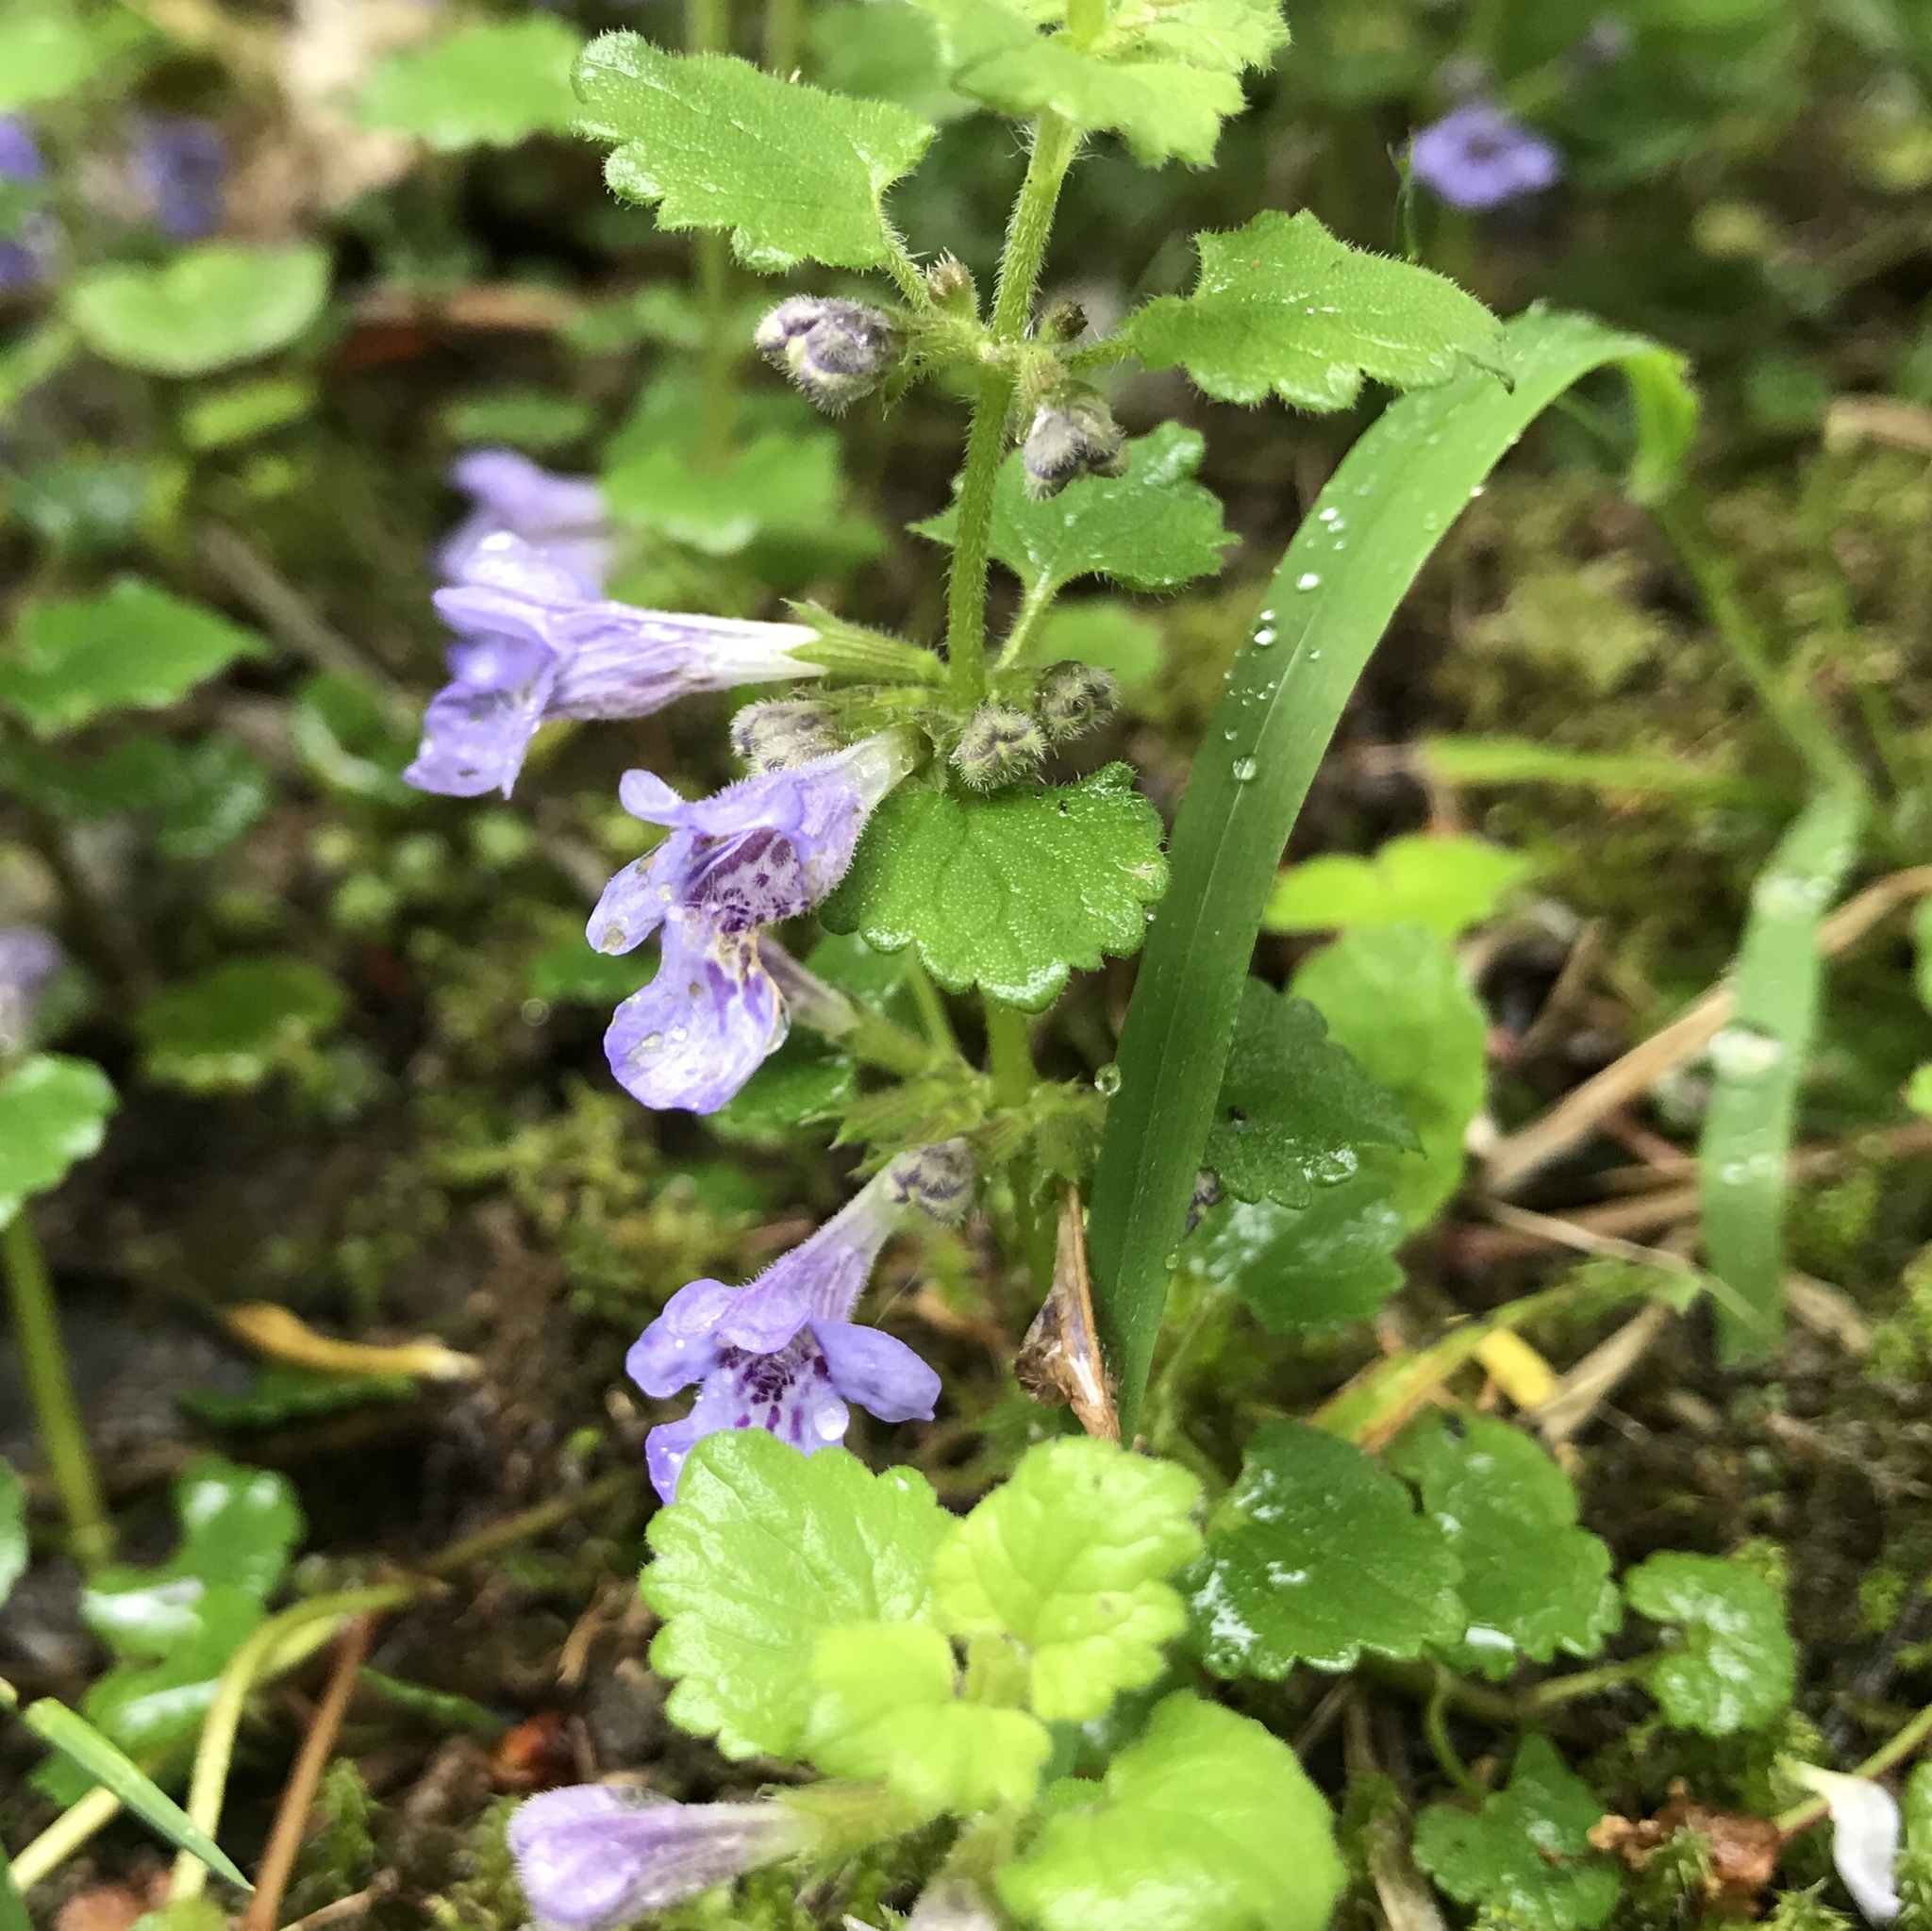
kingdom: Plantae
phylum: Tracheophyta
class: Magnoliopsida
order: Lamiales
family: Lamiaceae
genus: Glechoma
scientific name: Glechoma hederacea
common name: Ground ivy
